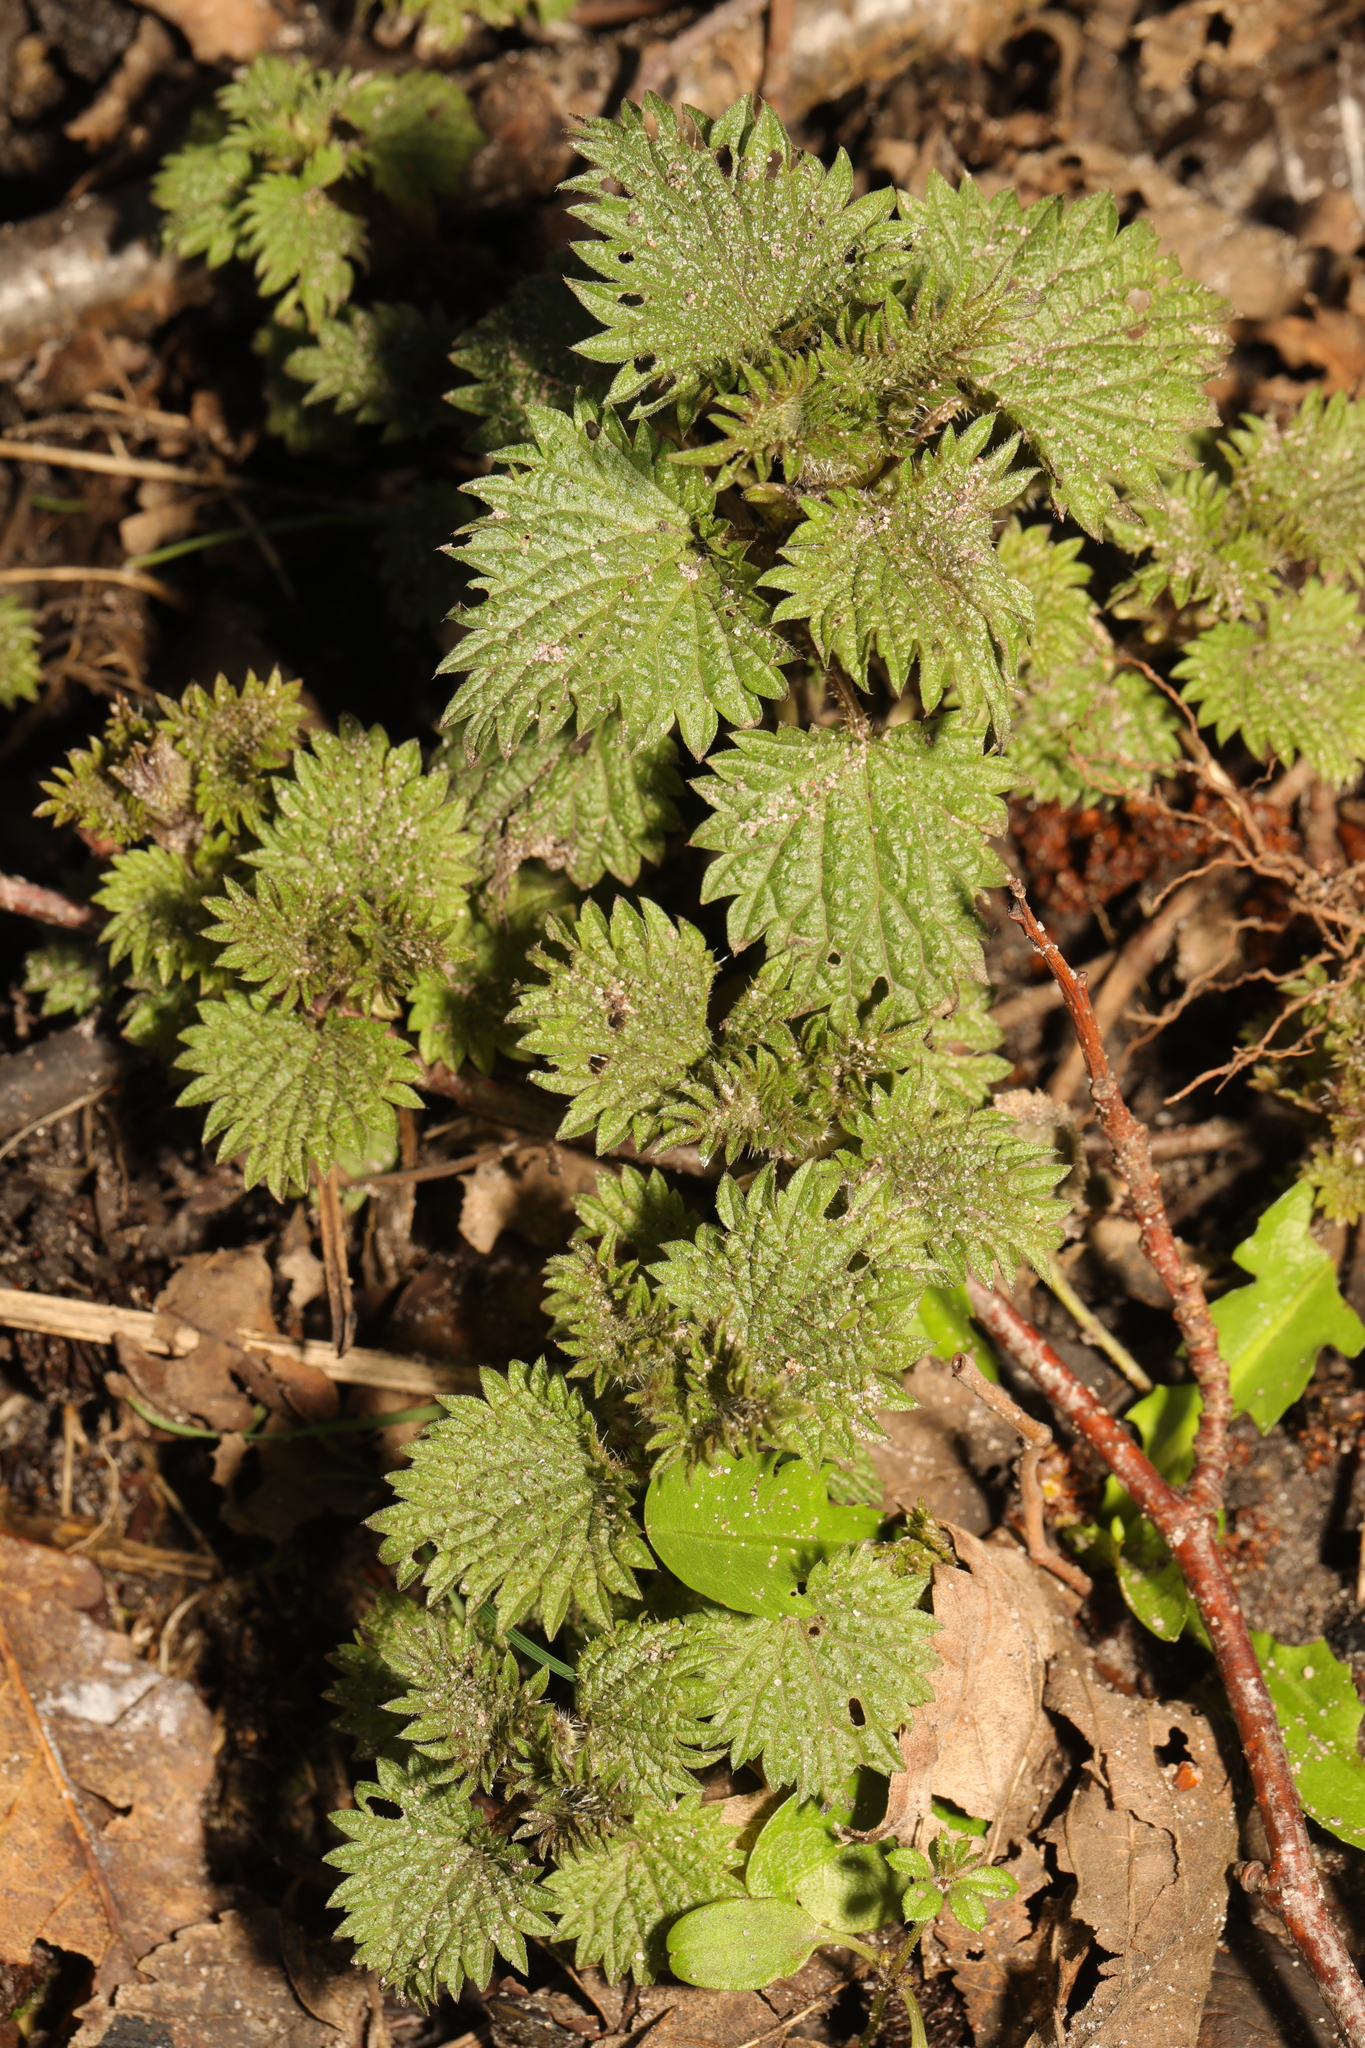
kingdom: Plantae
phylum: Tracheophyta
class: Magnoliopsida
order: Rosales
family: Urticaceae
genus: Urtica
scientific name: Urtica dioica
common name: Common nettle
